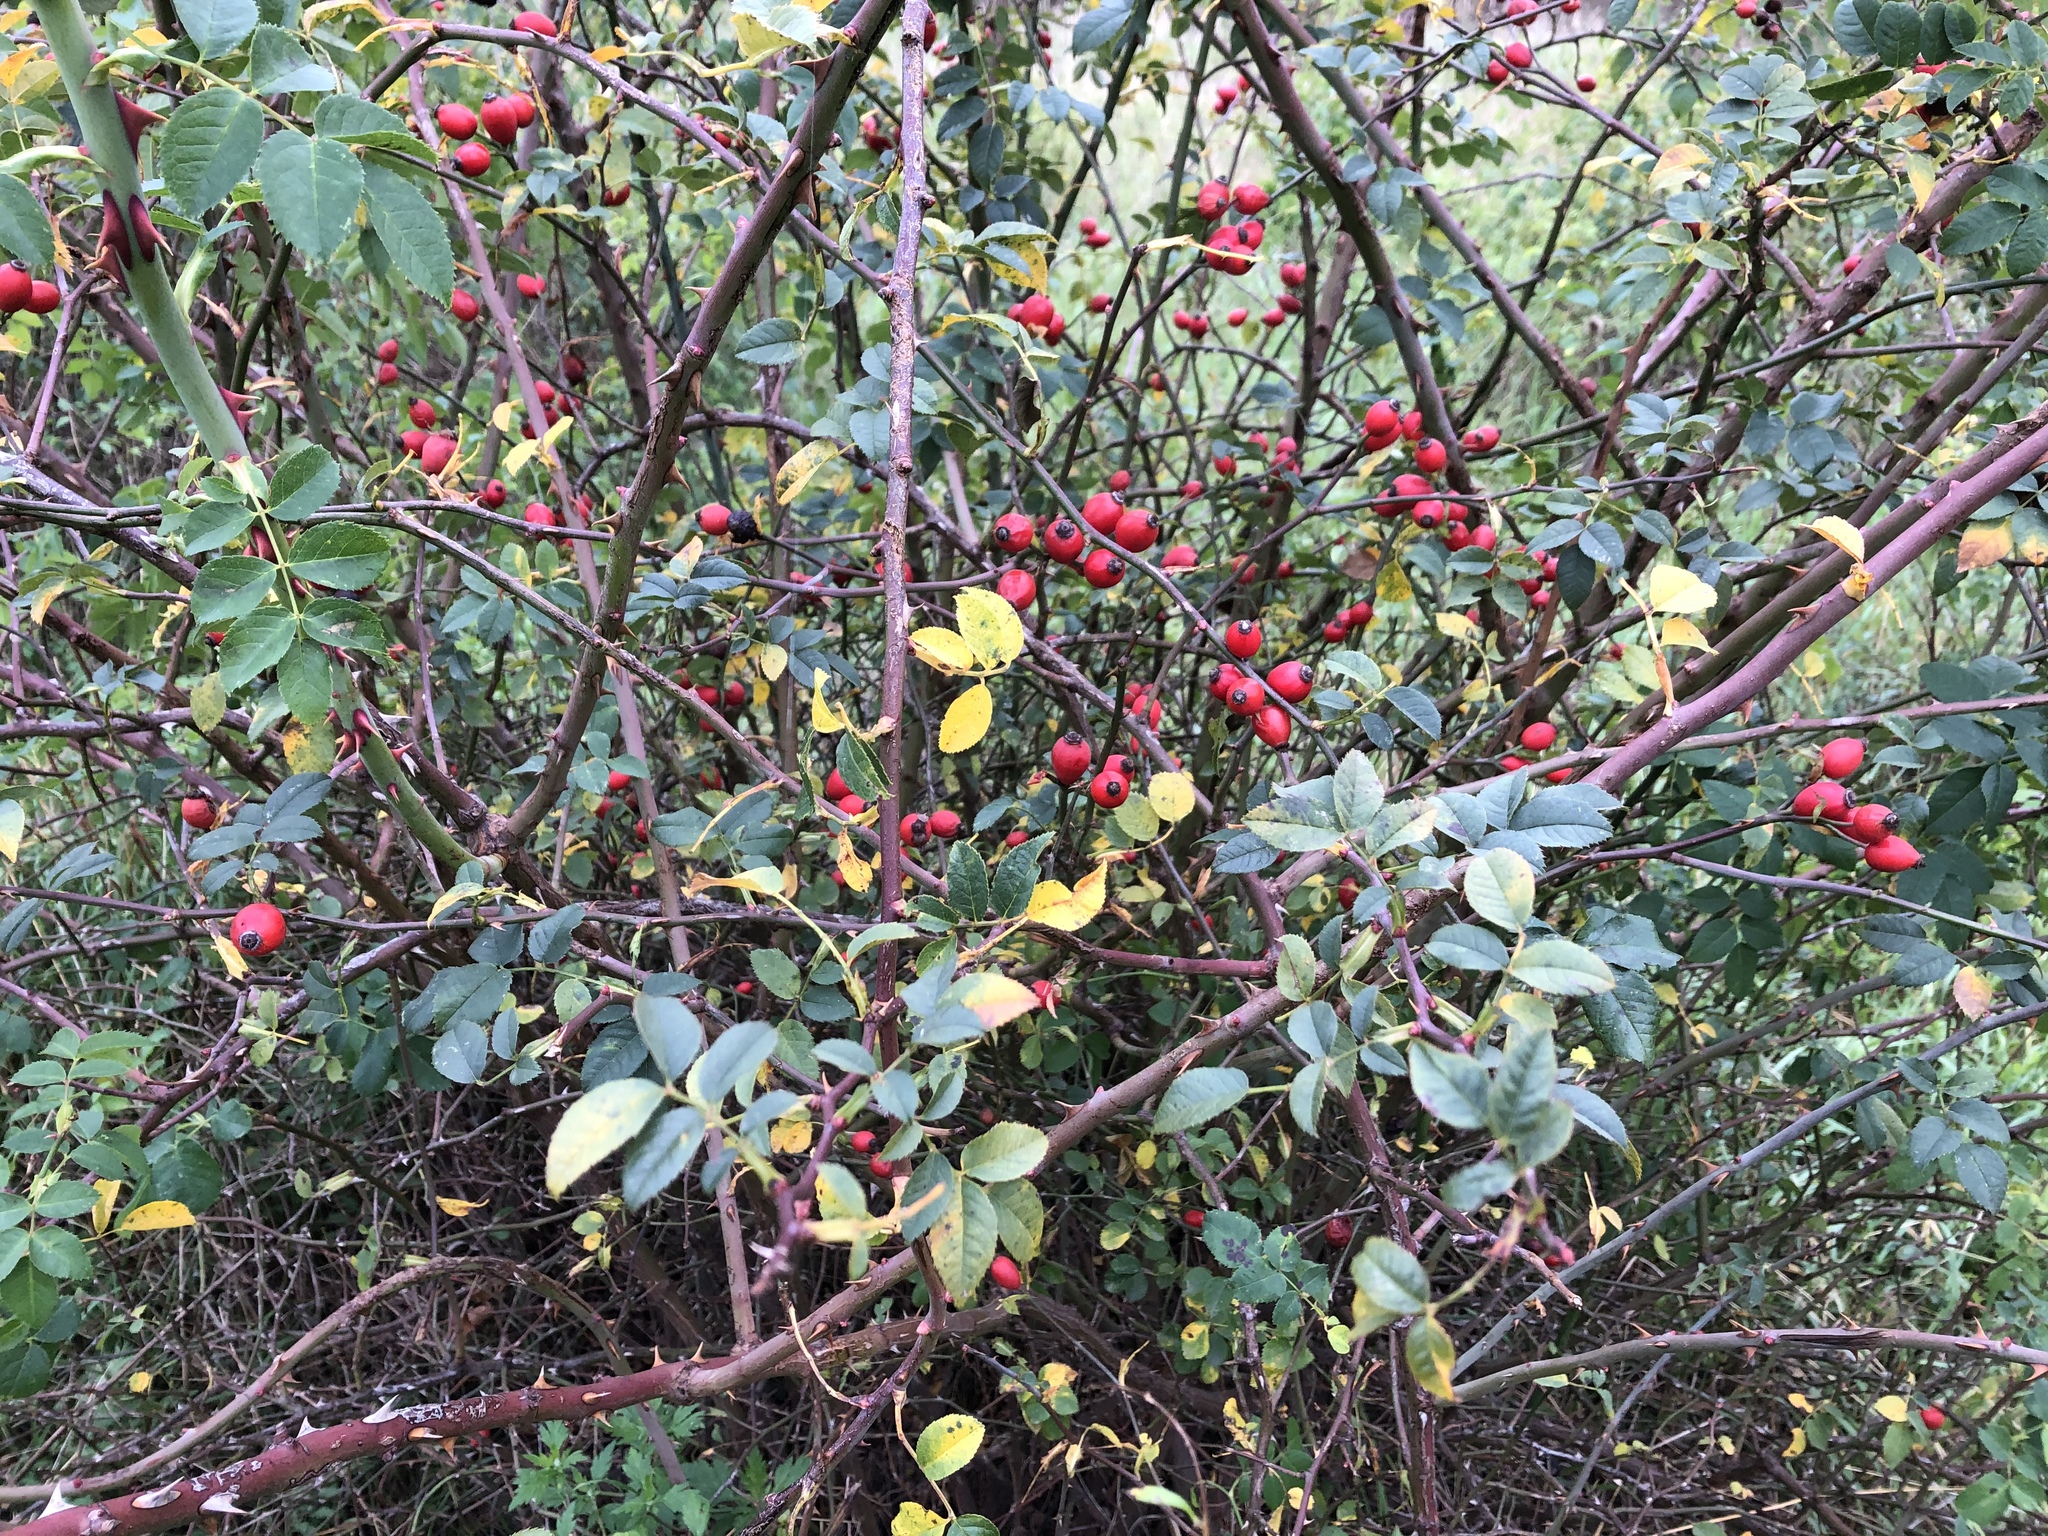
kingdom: Plantae
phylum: Tracheophyta
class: Magnoliopsida
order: Rosales
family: Rosaceae
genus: Rosa
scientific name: Rosa canina
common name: Dog rose
